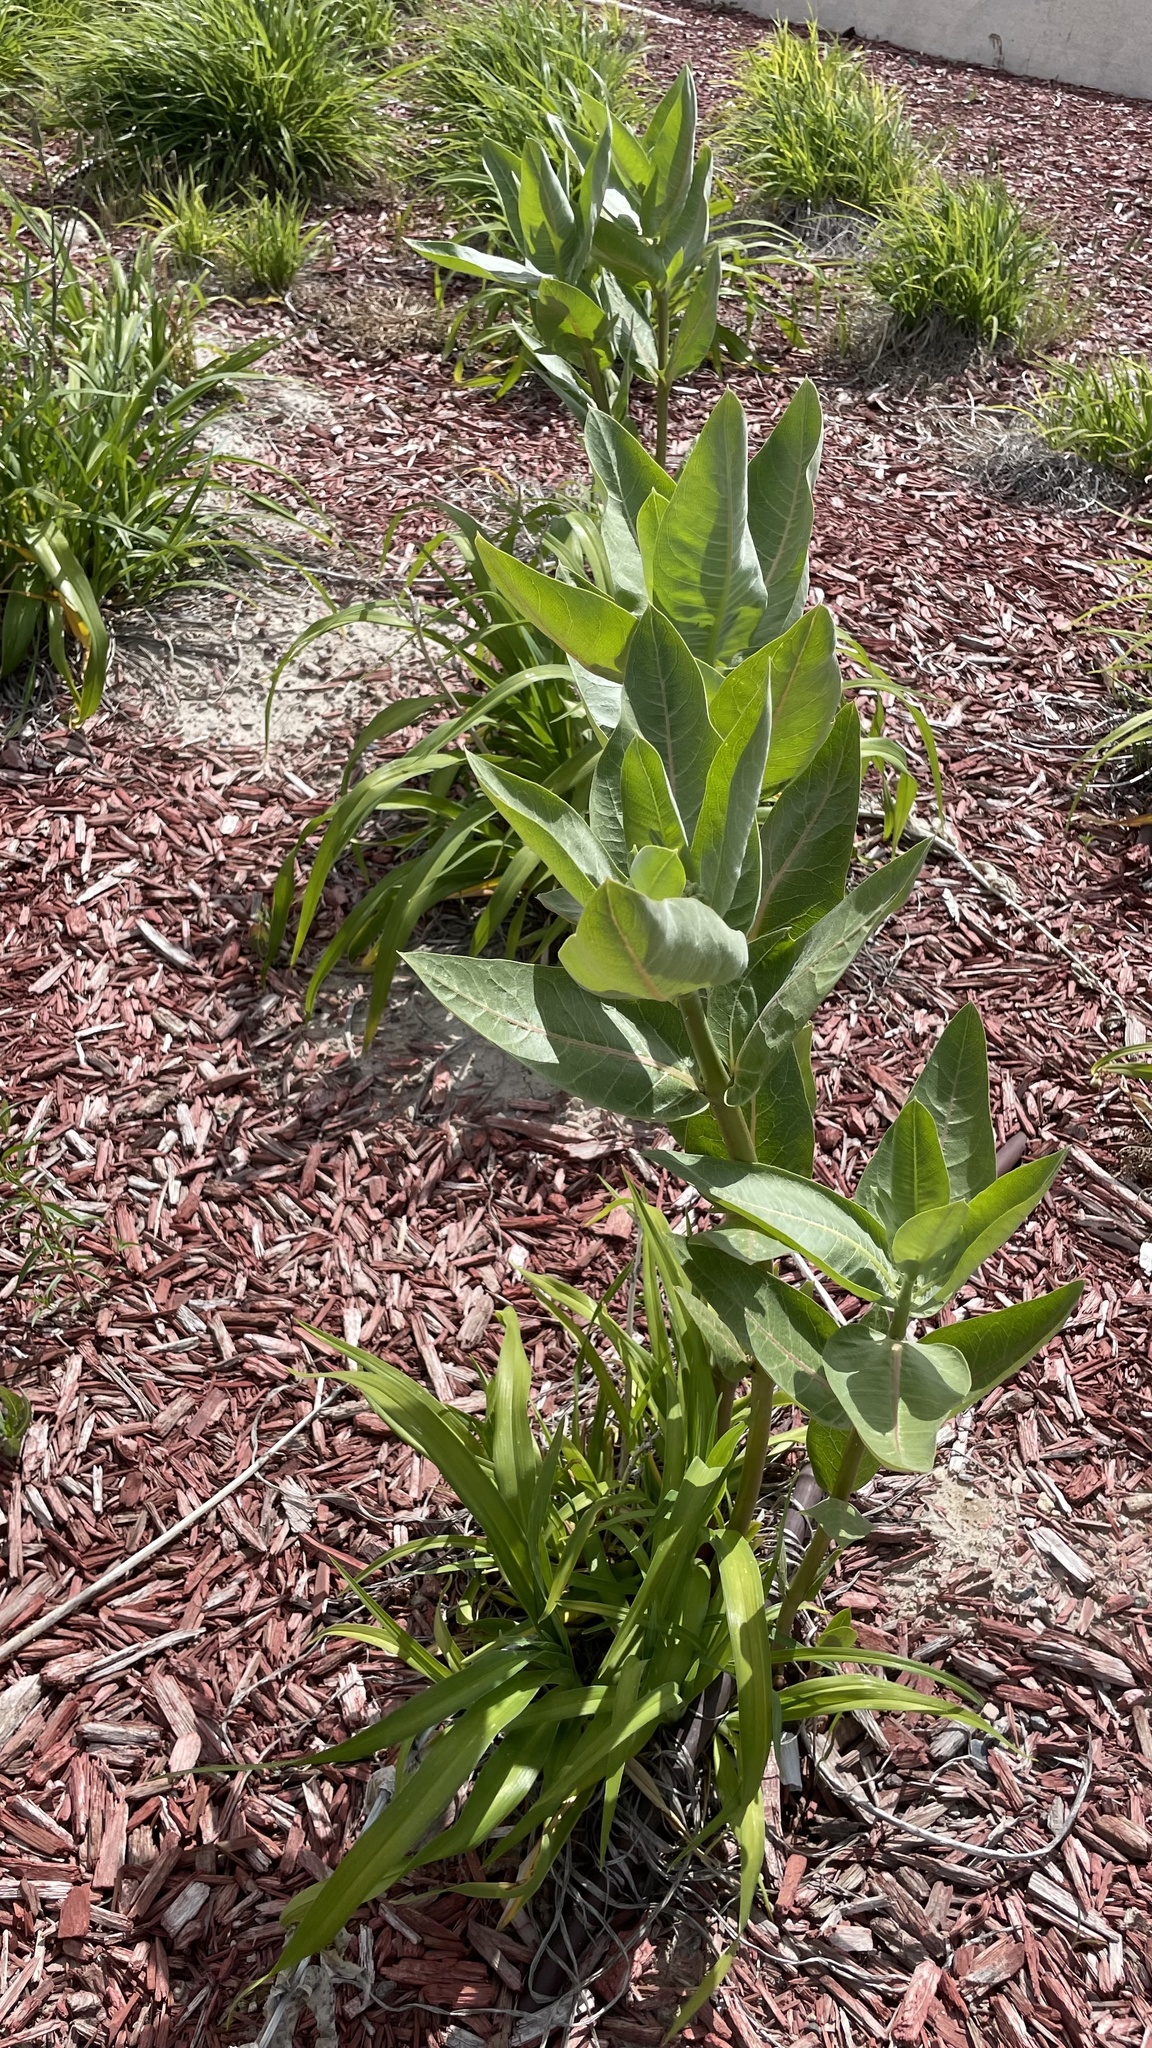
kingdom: Plantae
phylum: Tracheophyta
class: Magnoliopsida
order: Gentianales
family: Apocynaceae
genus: Asclepias
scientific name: Asclepias speciosa
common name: Showy milkweed
